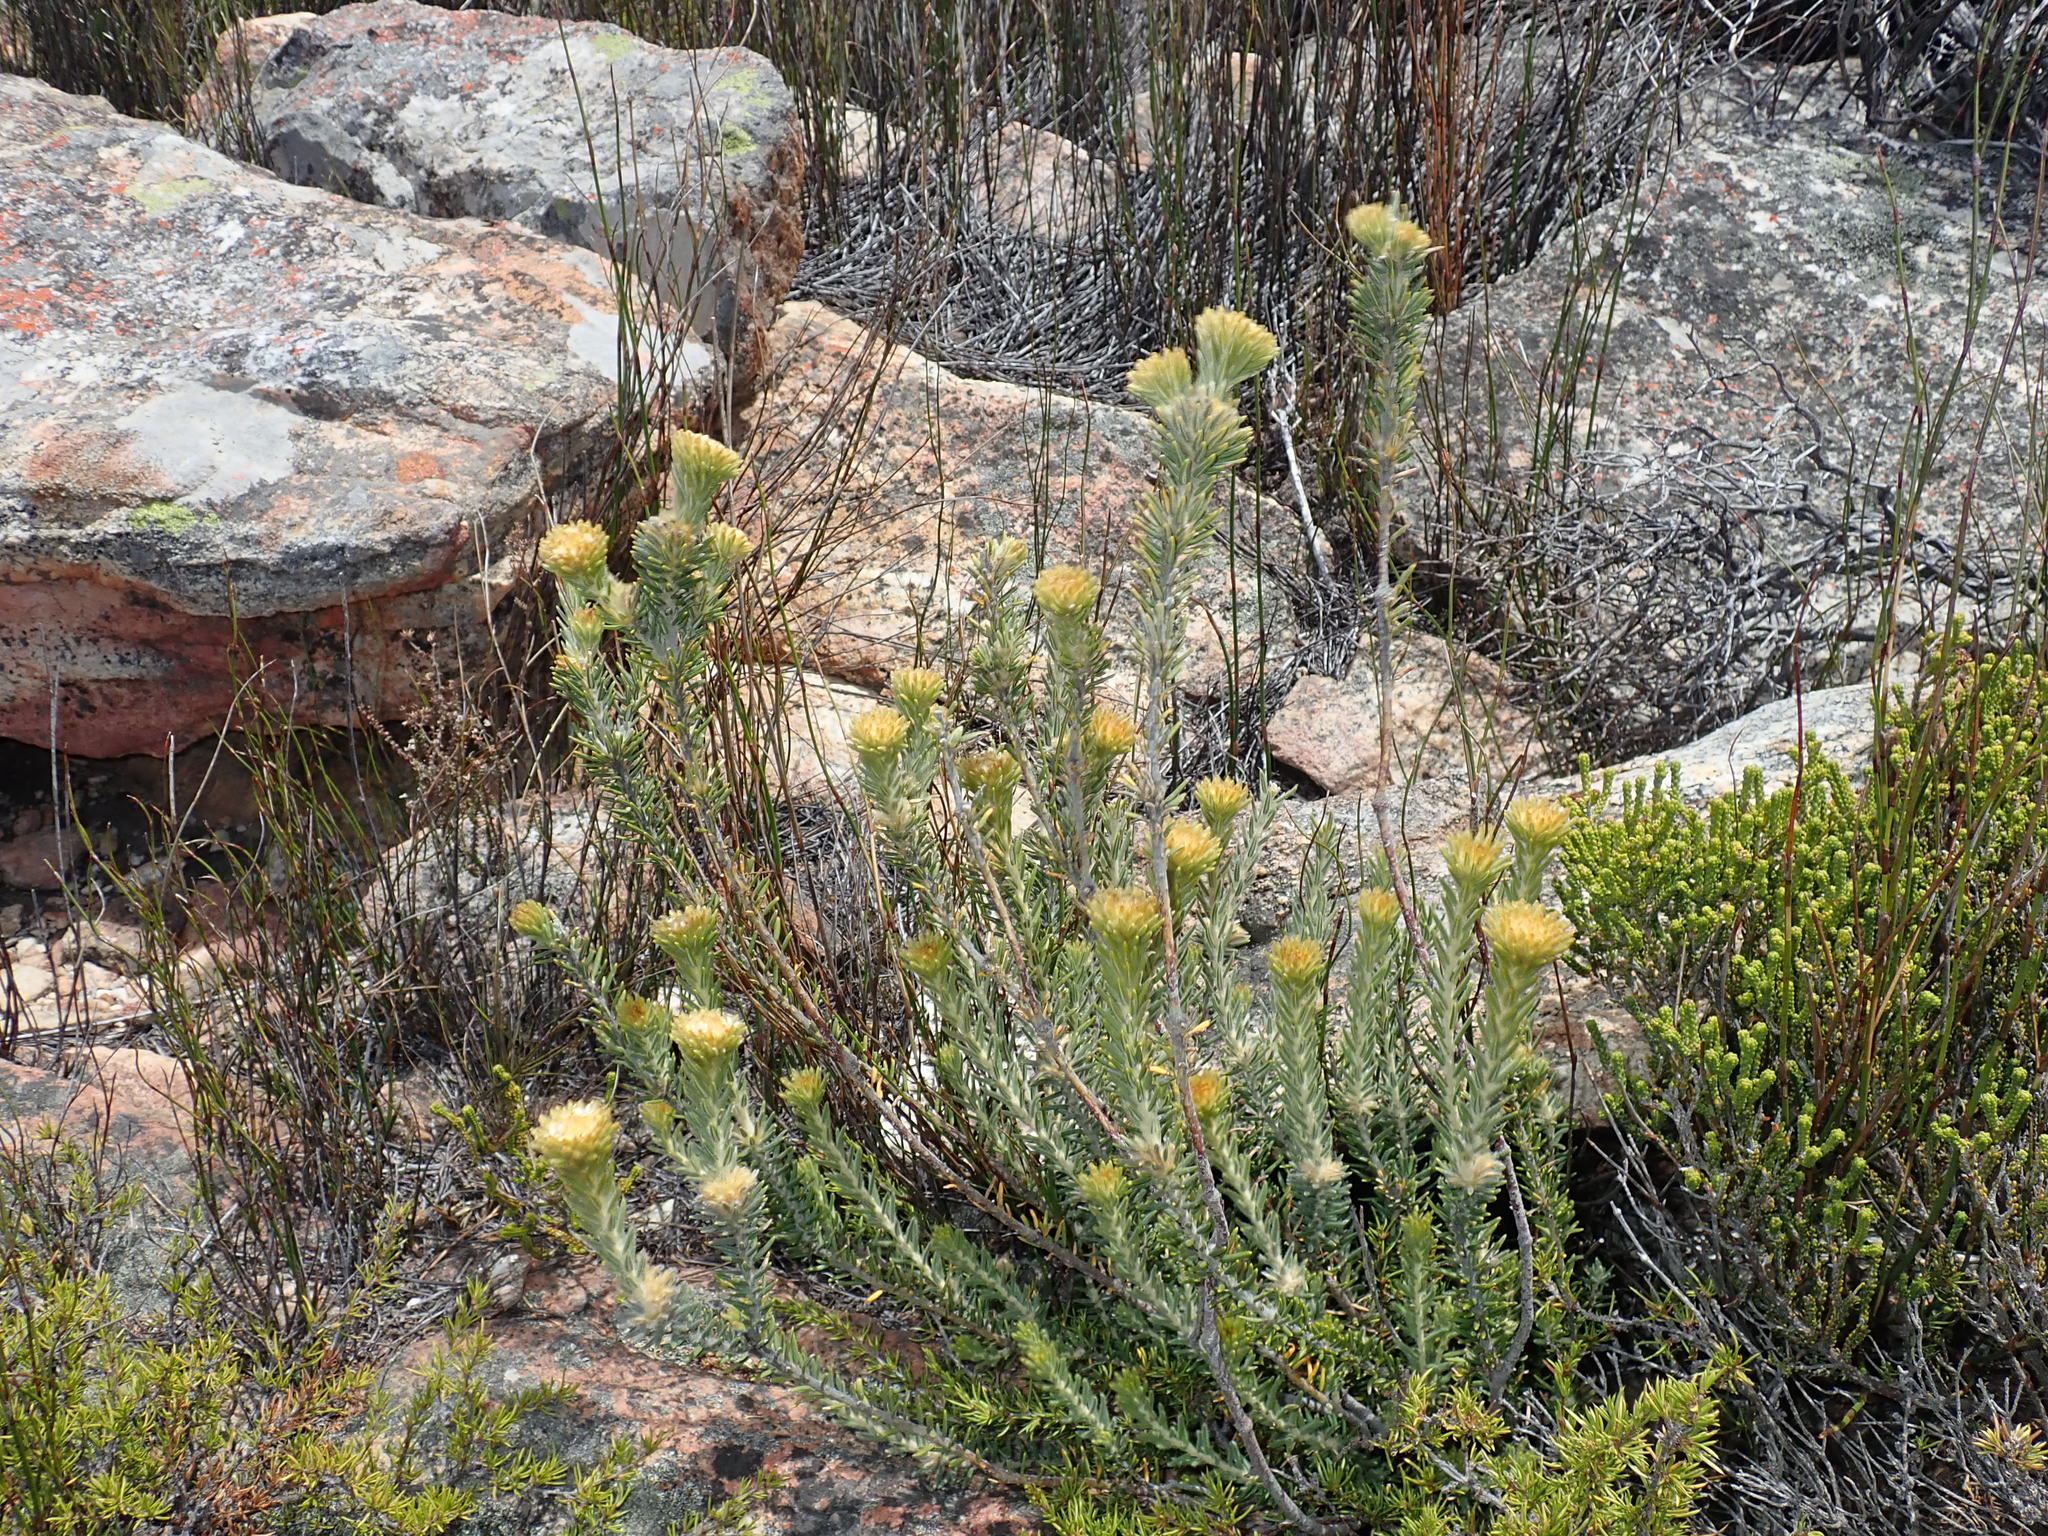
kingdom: Plantae
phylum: Tracheophyta
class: Magnoliopsida
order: Rosales
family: Rhamnaceae
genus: Phylica
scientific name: Phylica nigromontana
